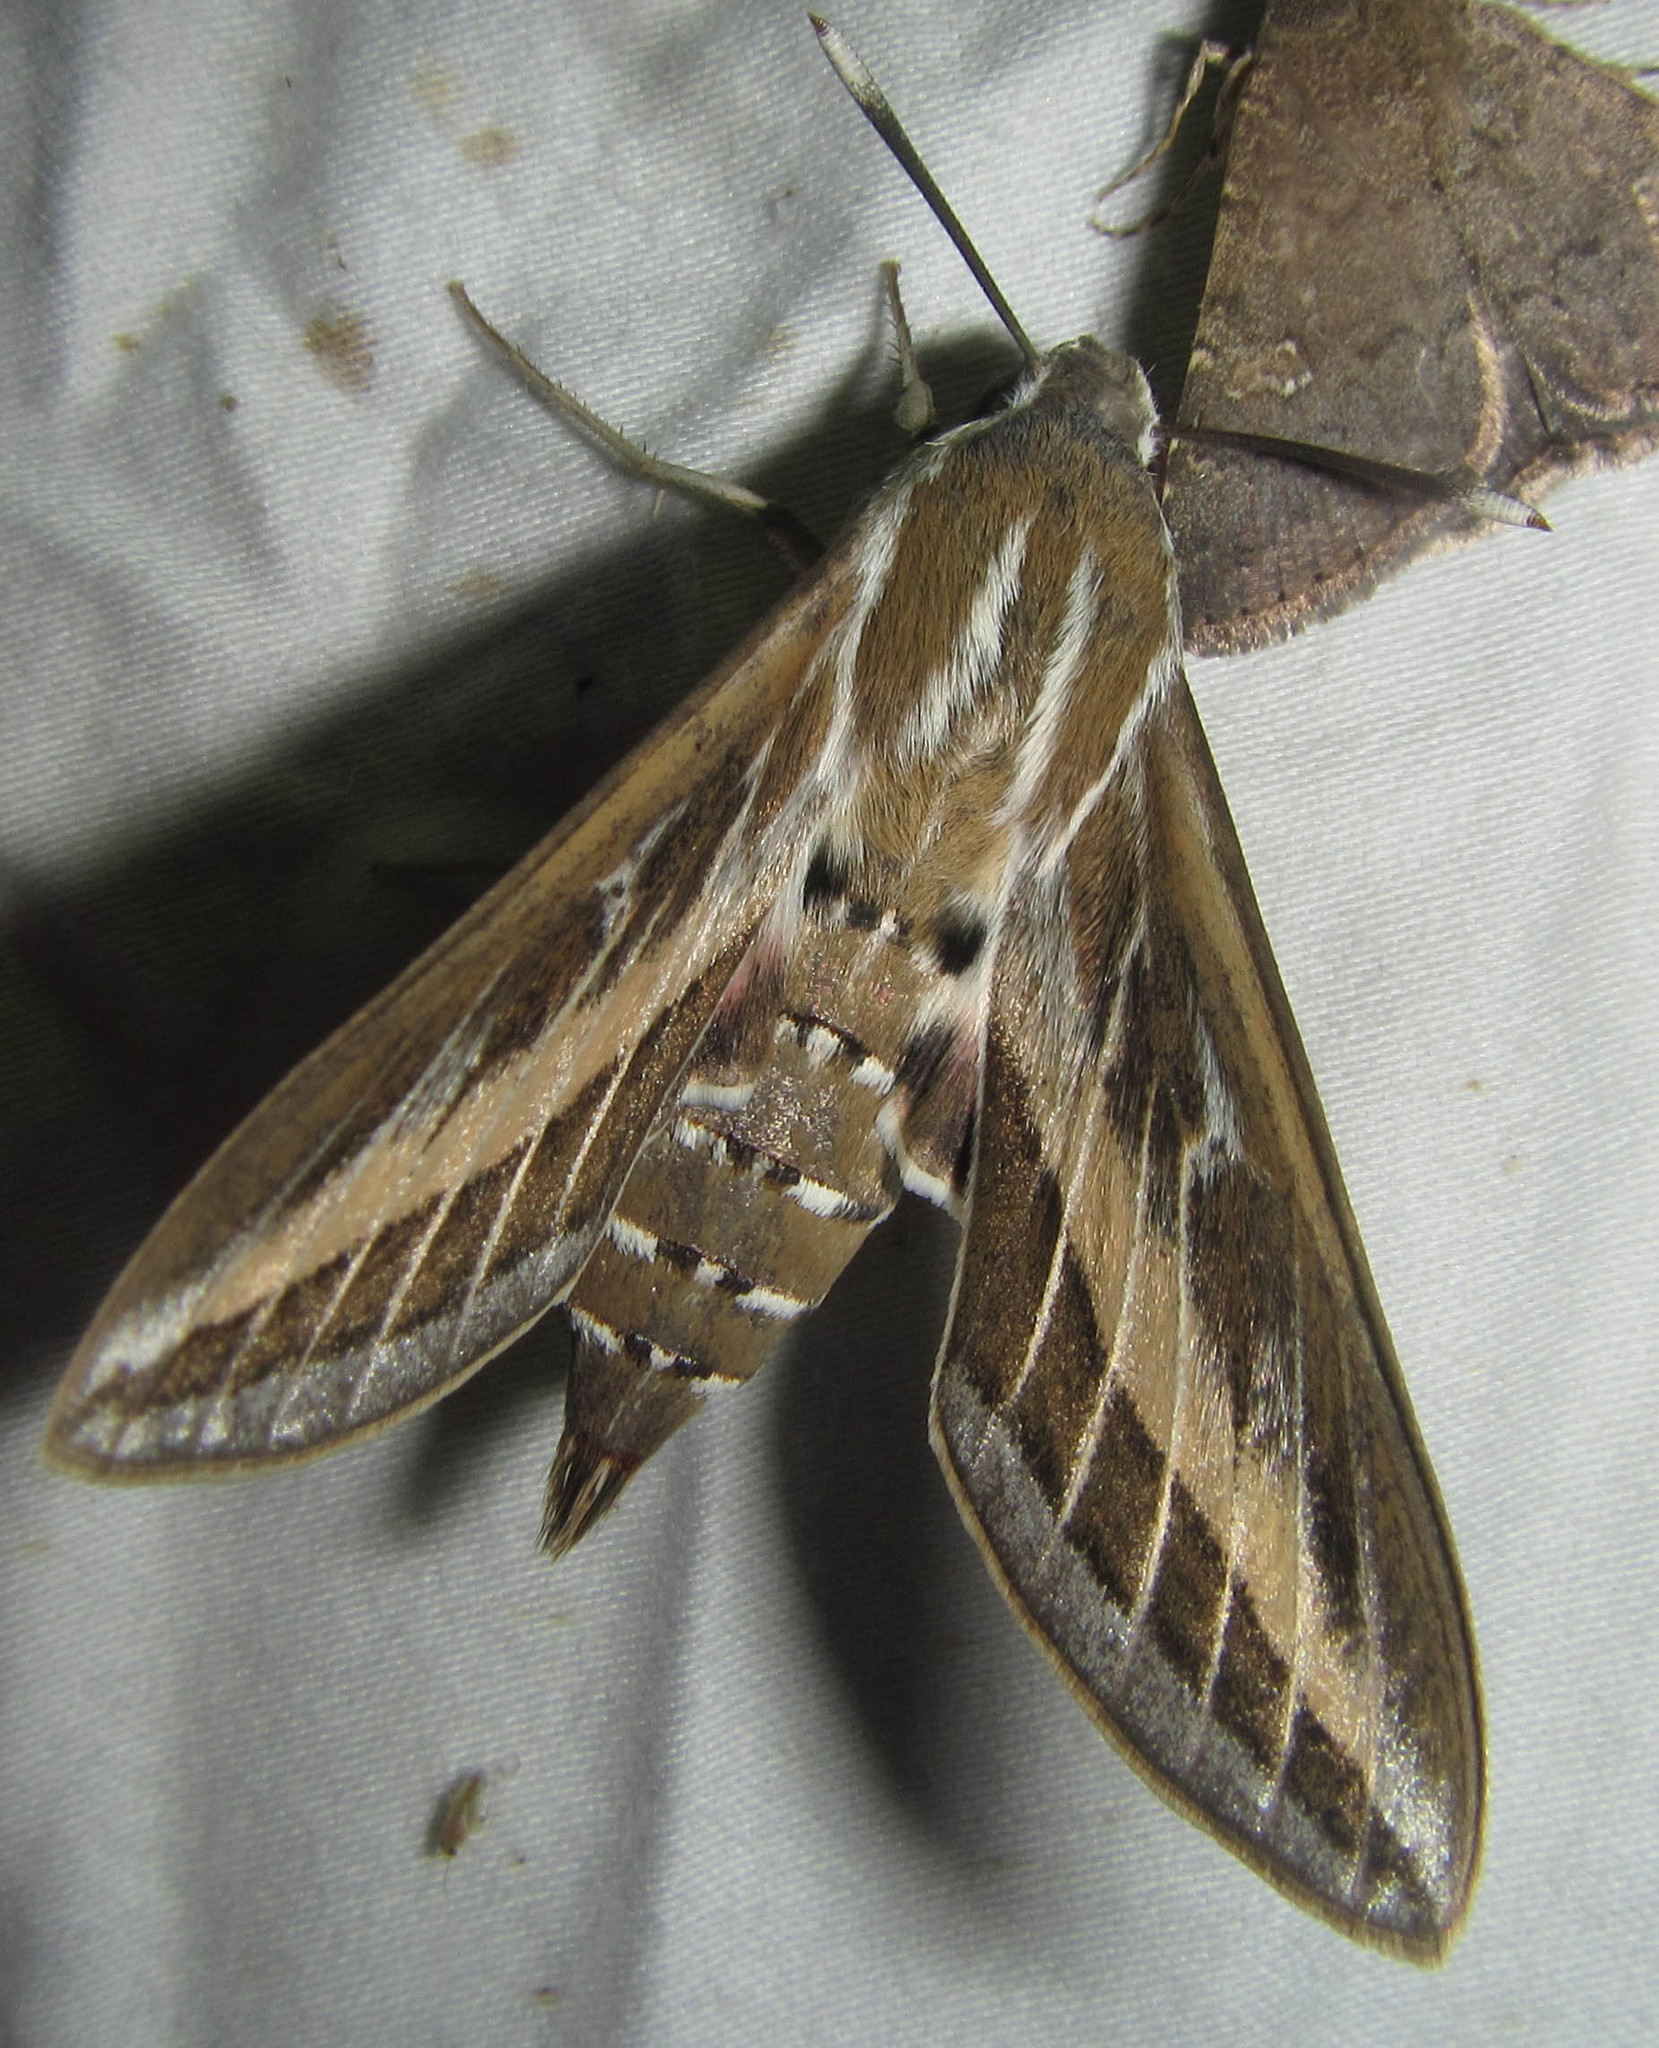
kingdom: Animalia
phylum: Arthropoda
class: Insecta
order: Lepidoptera
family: Sphingidae
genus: Hyles
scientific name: Hyles livornica
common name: Striped hawk-moth
